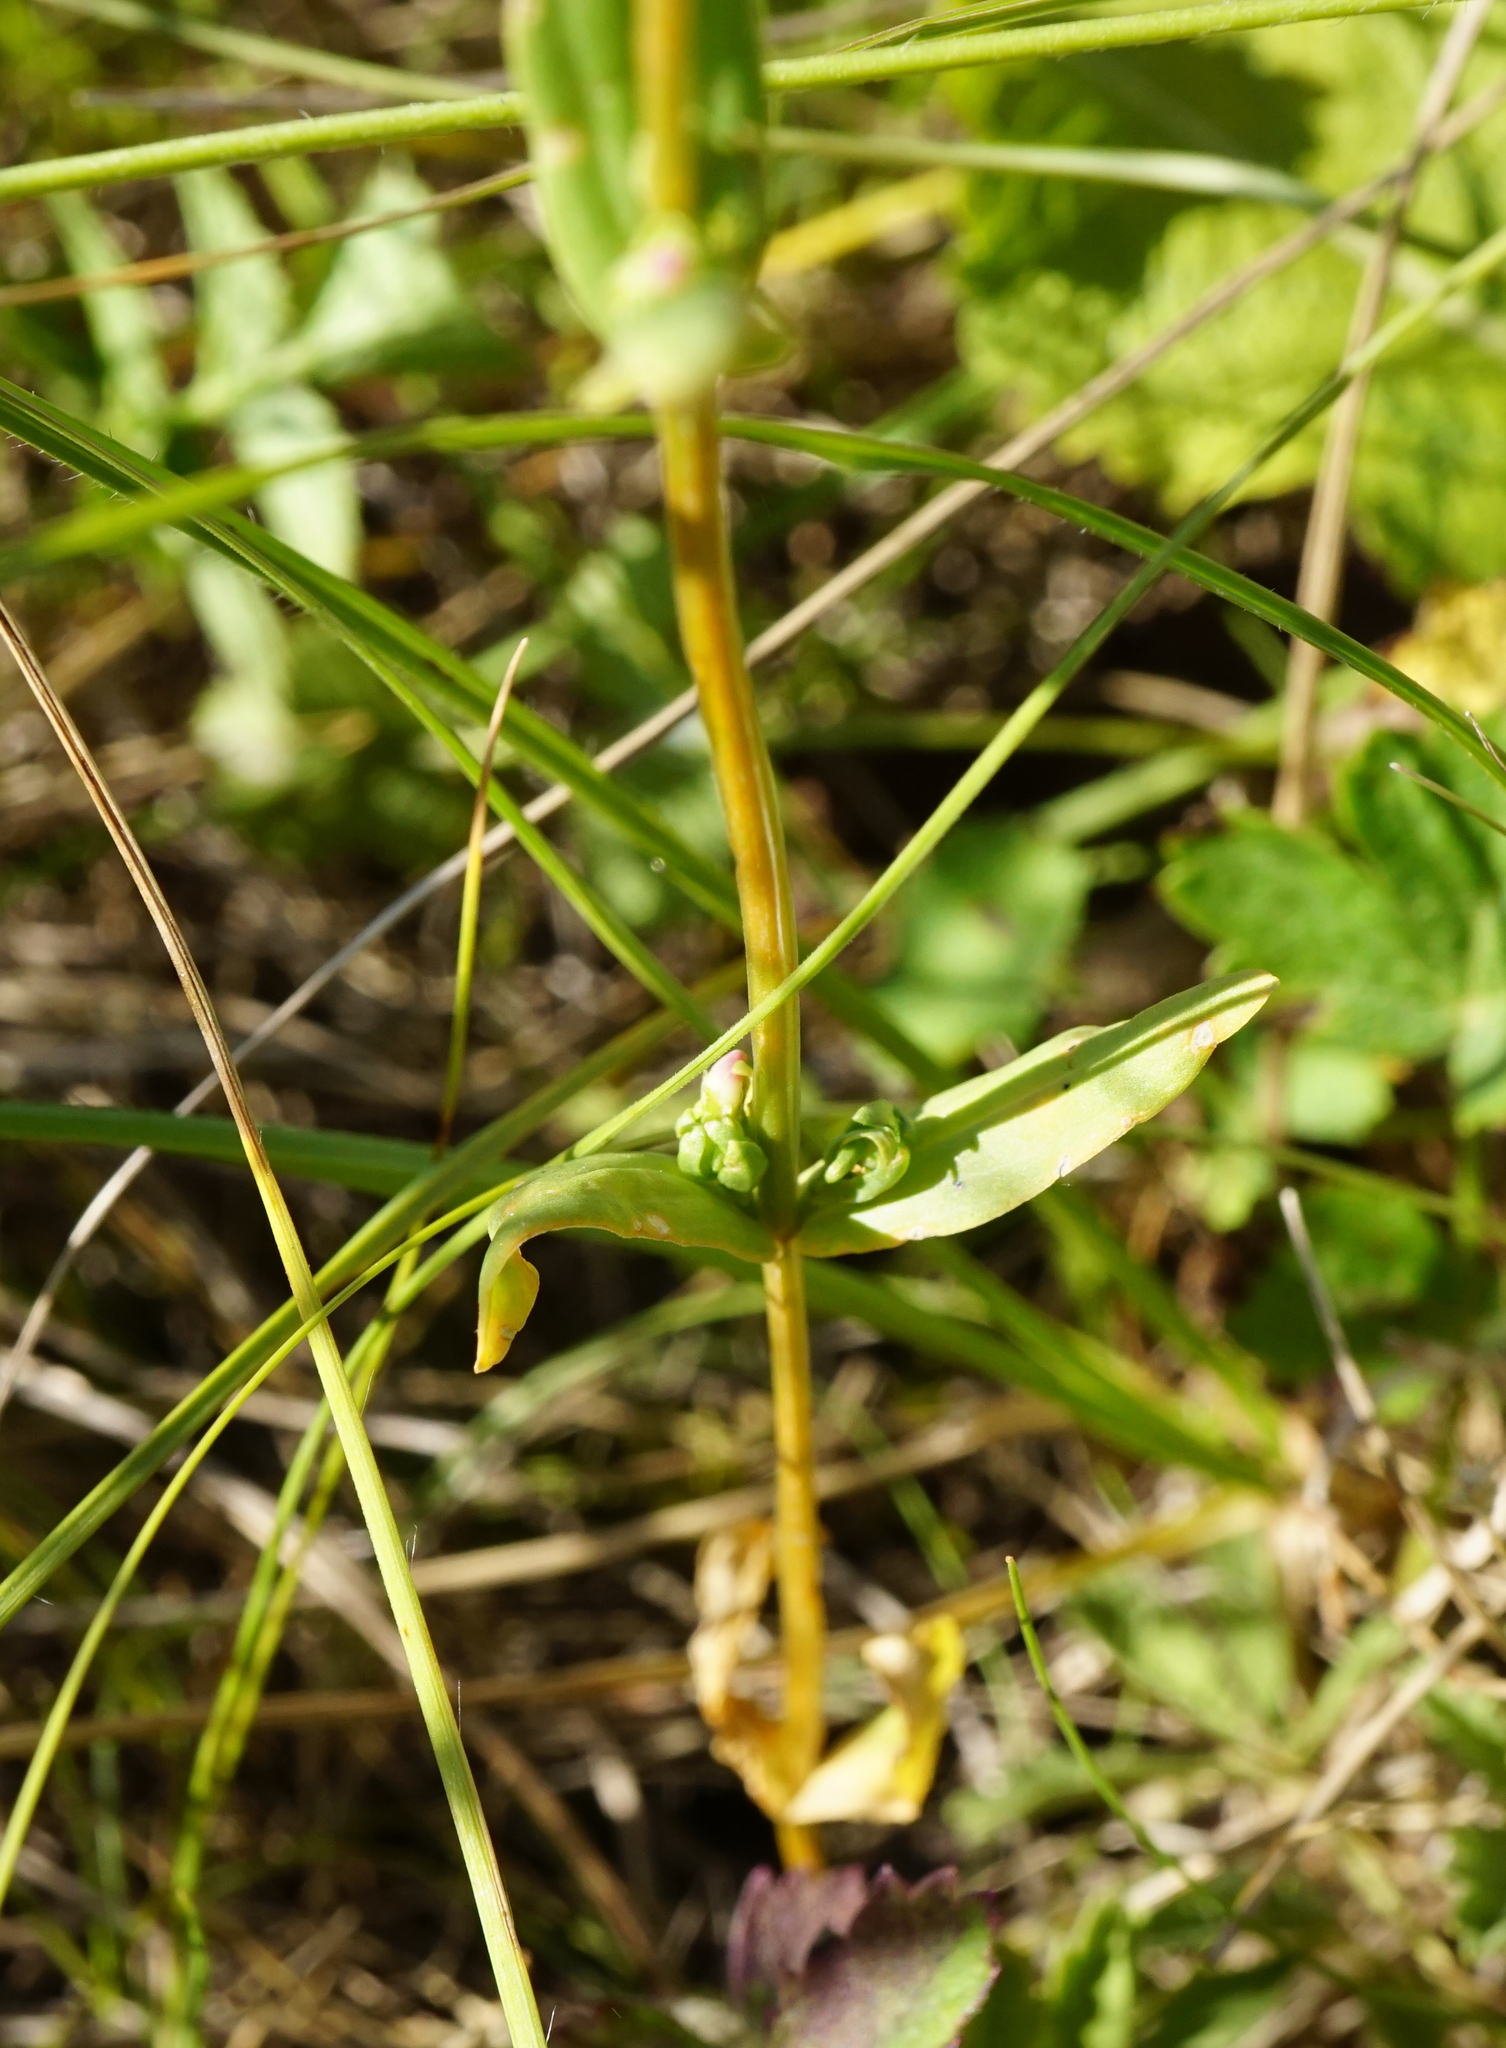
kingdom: Plantae
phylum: Tracheophyta
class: Magnoliopsida
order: Gentianales
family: Gentianaceae
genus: Centaurium
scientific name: Centaurium erythraea
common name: Common centaury
